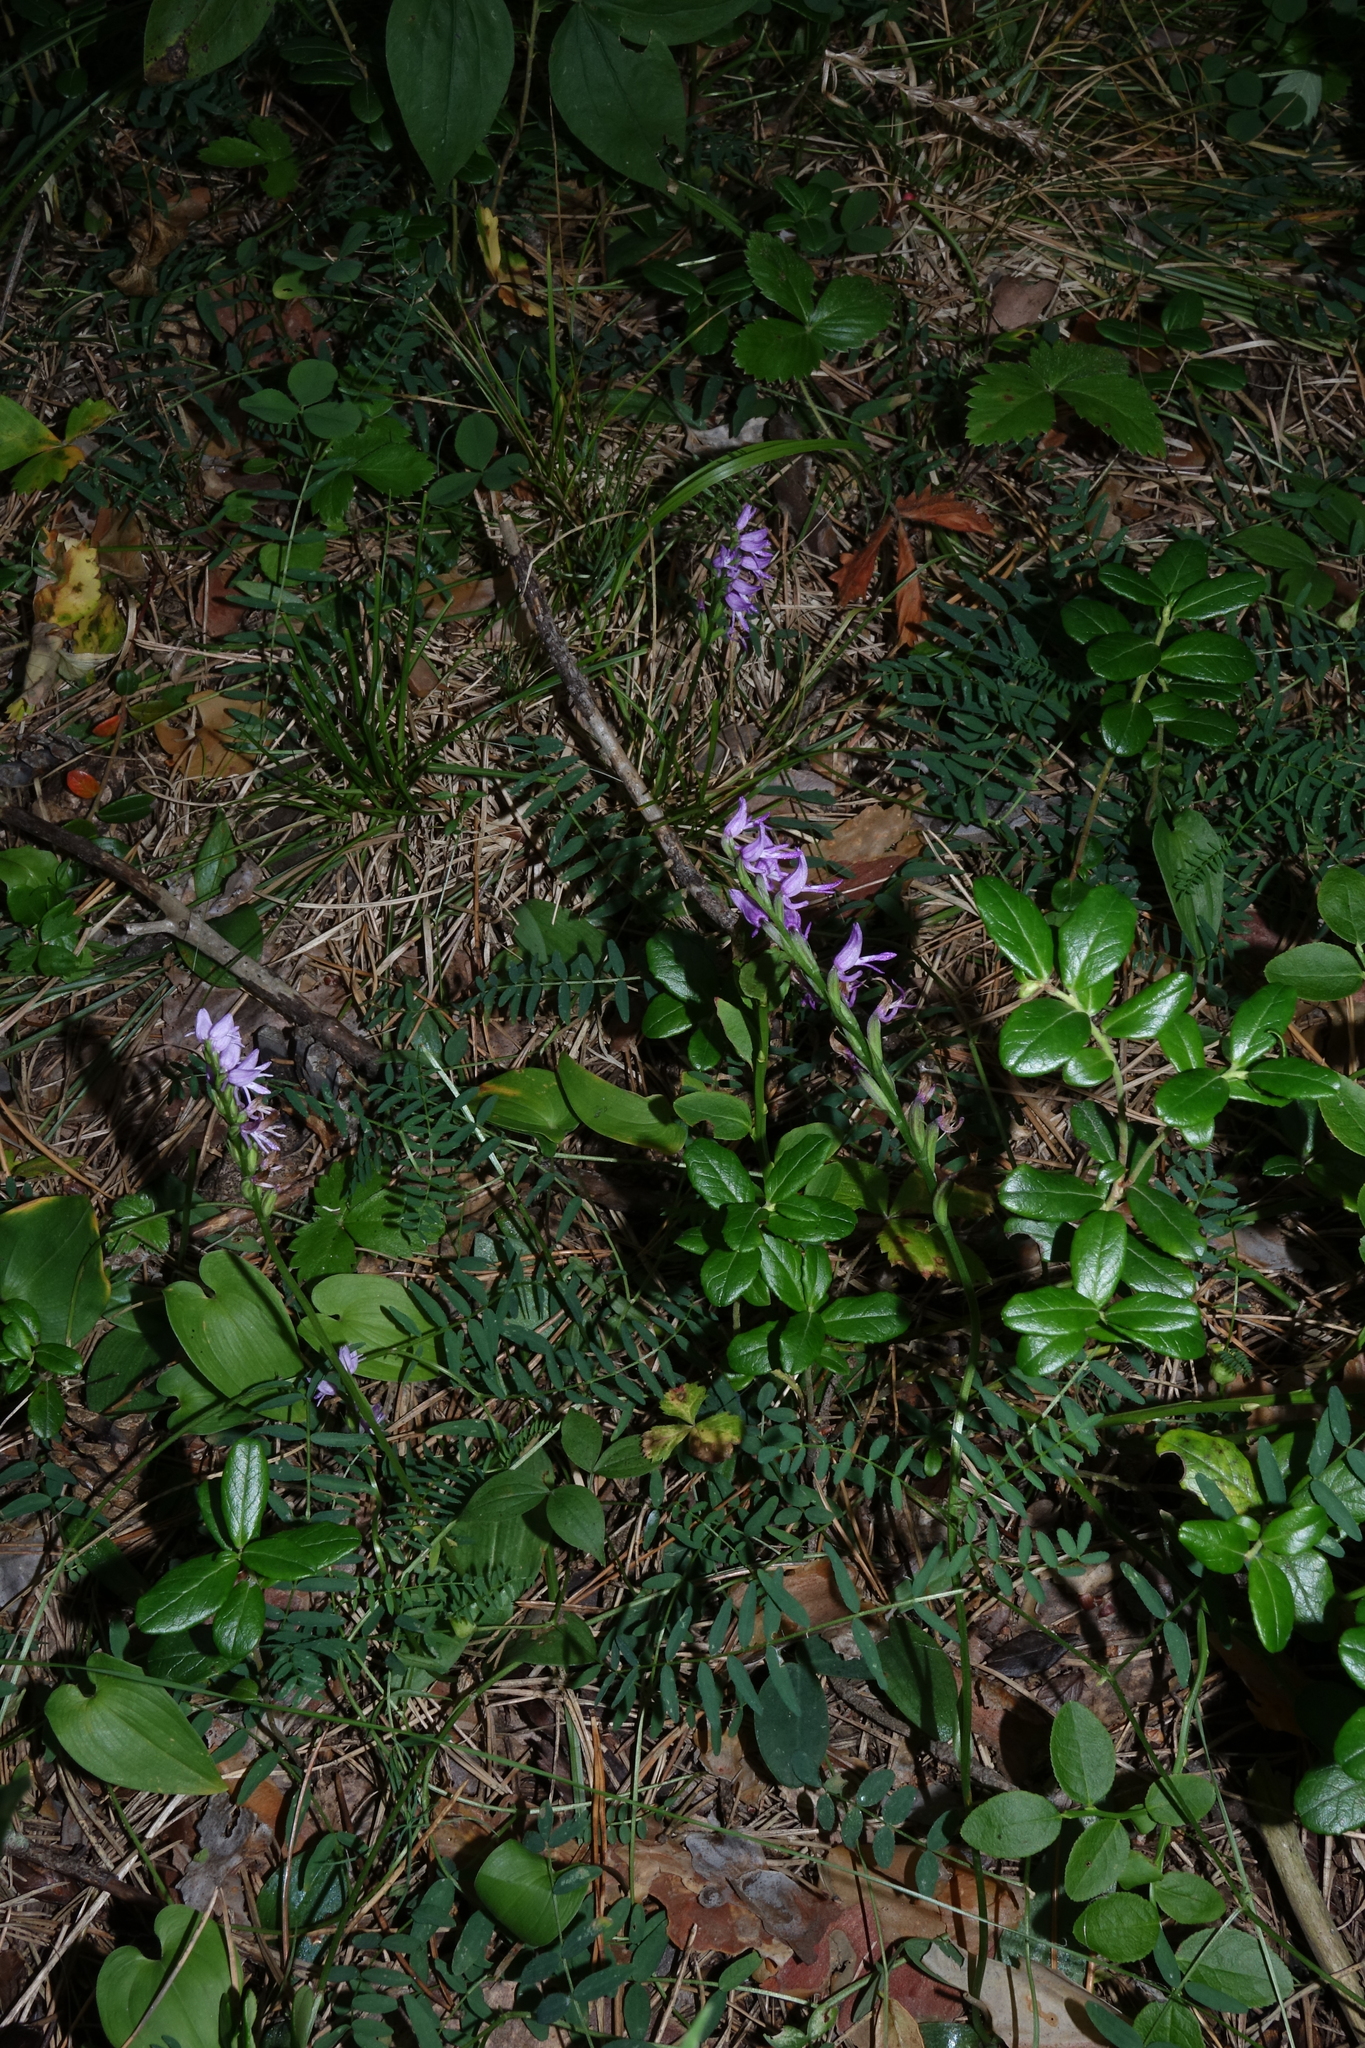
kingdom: Plantae
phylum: Tracheophyta
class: Liliopsida
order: Asparagales
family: Orchidaceae
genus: Hemipilia
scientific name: Hemipilia cucullata
